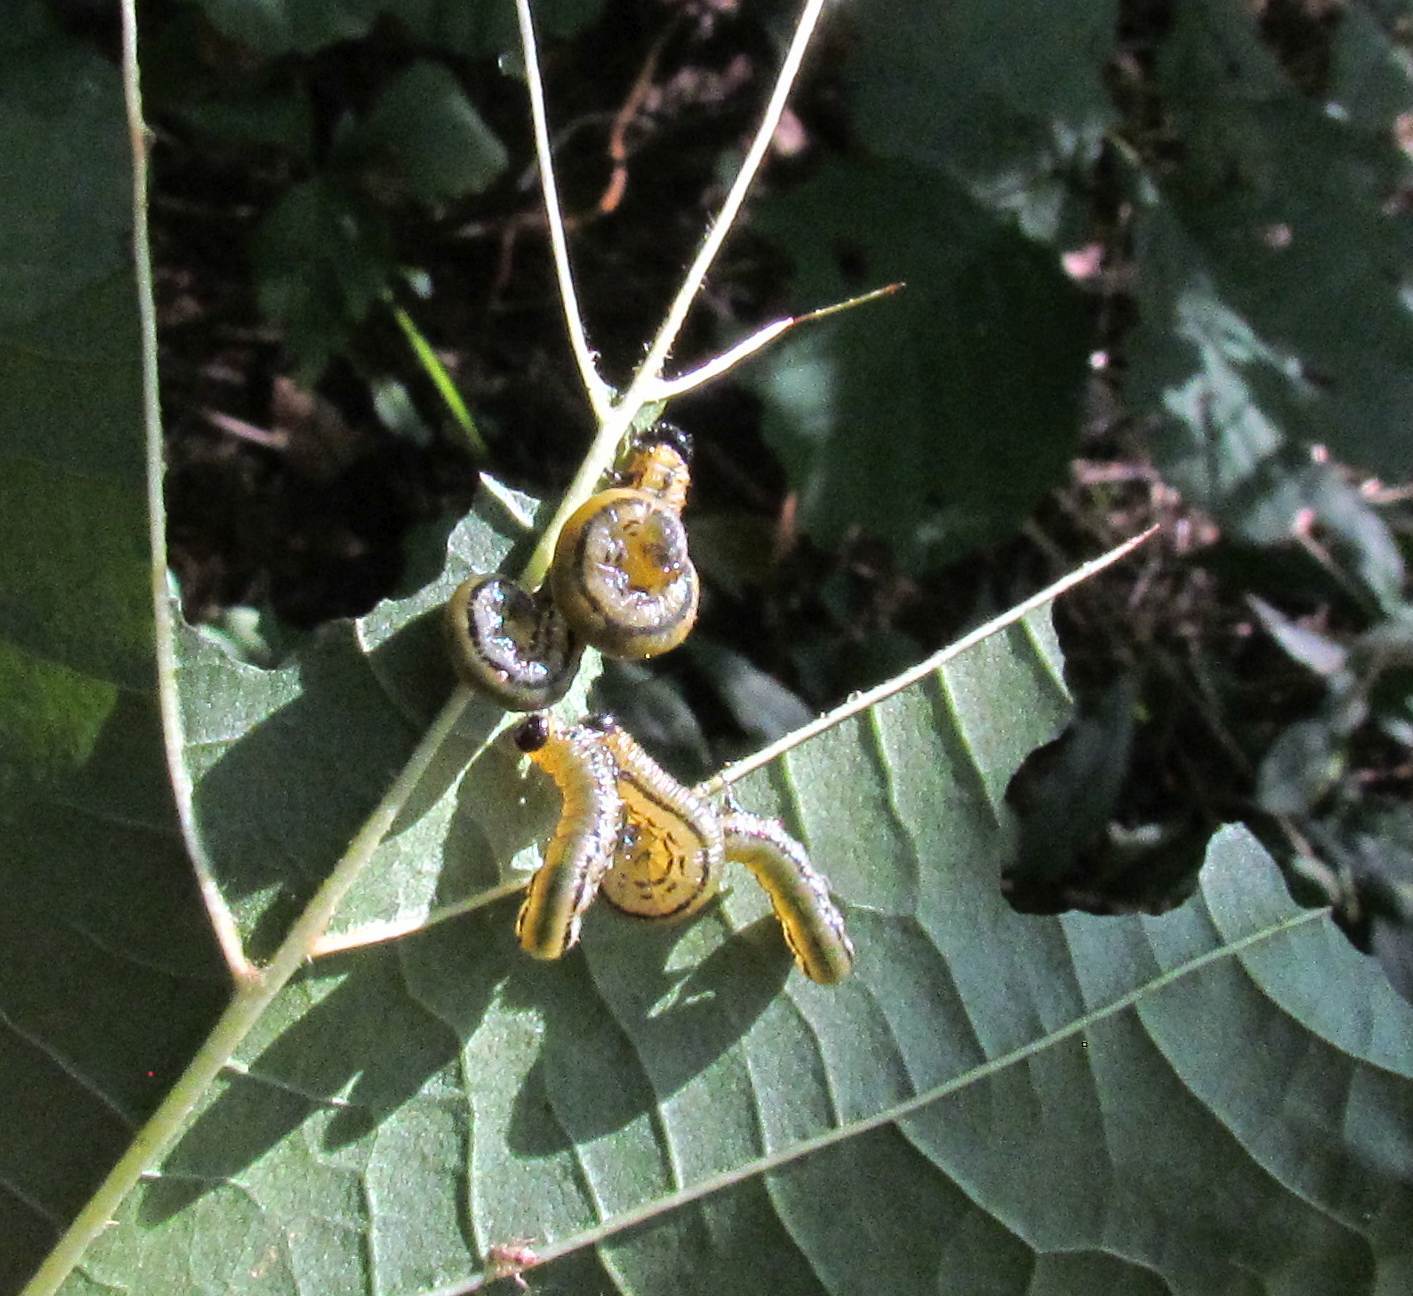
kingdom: Animalia
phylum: Arthropoda
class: Insecta
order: Hymenoptera
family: Tenthredinidae
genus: Hemichroa
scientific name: Hemichroa crocea
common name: Striped alder sawfly
